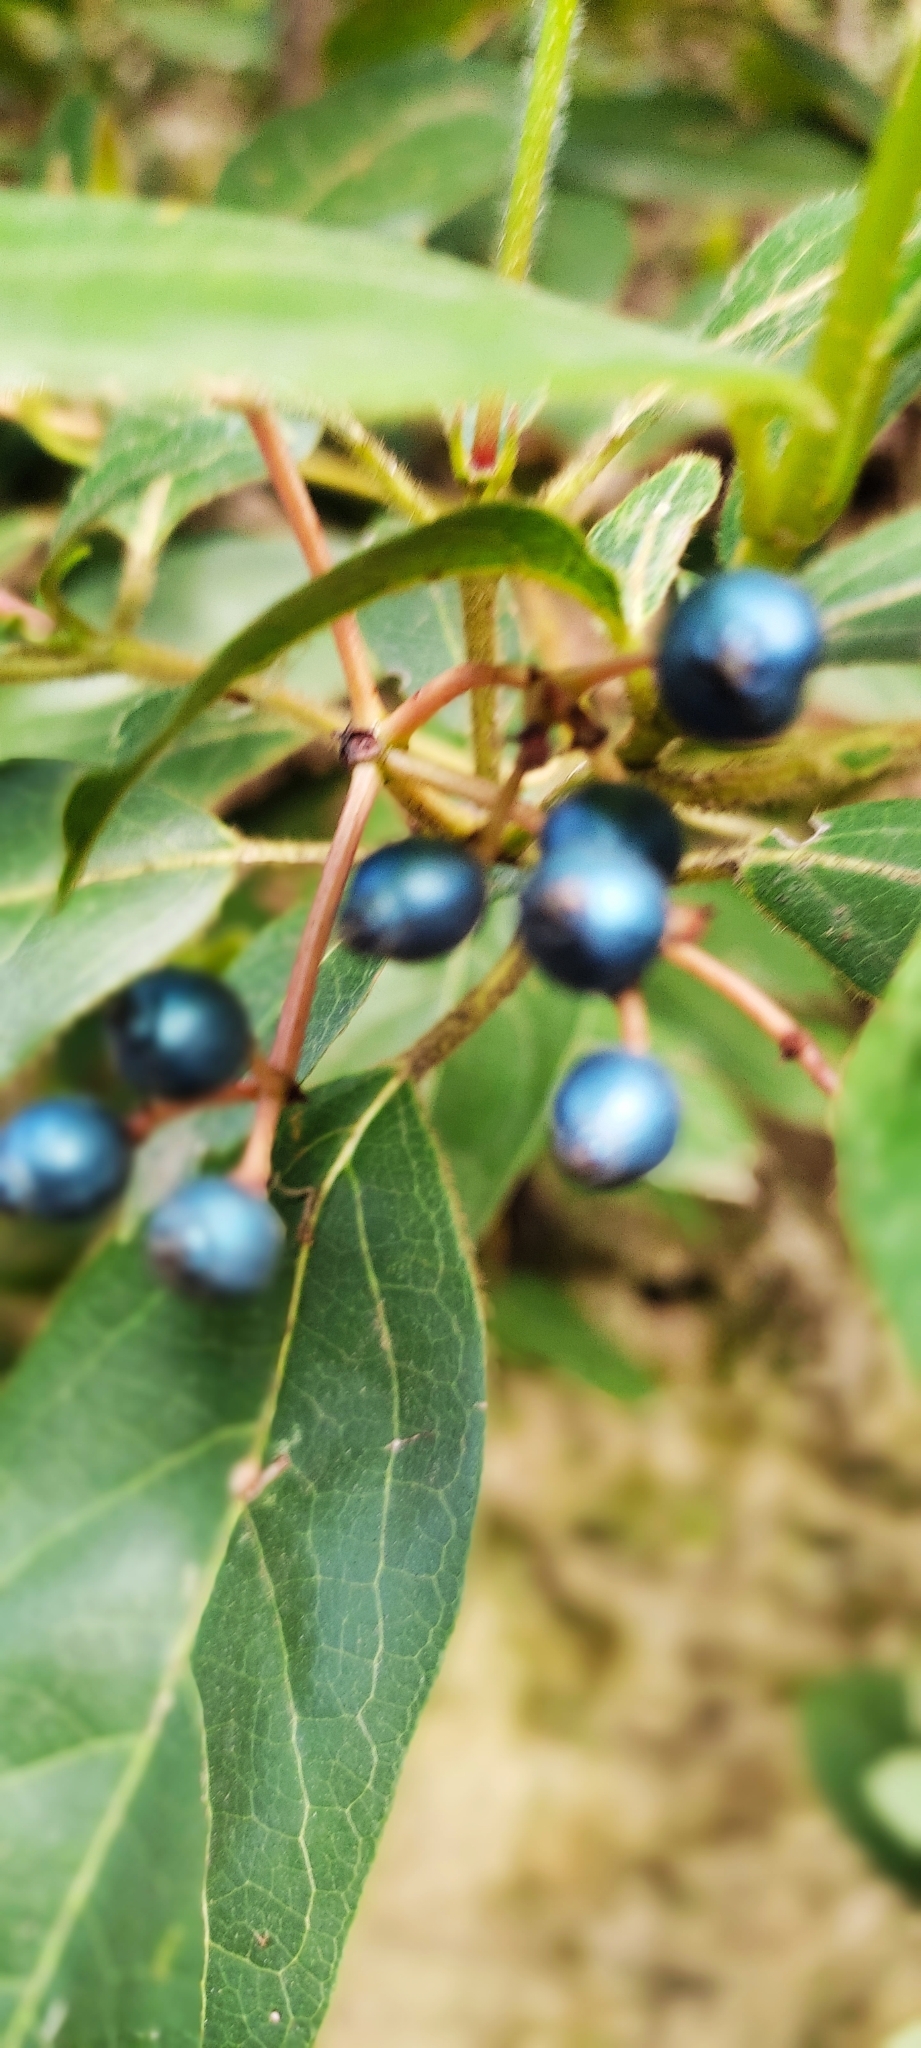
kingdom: Plantae
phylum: Tracheophyta
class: Magnoliopsida
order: Dipsacales
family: Viburnaceae
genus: Viburnum
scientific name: Viburnum tinus
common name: Laurustinus
